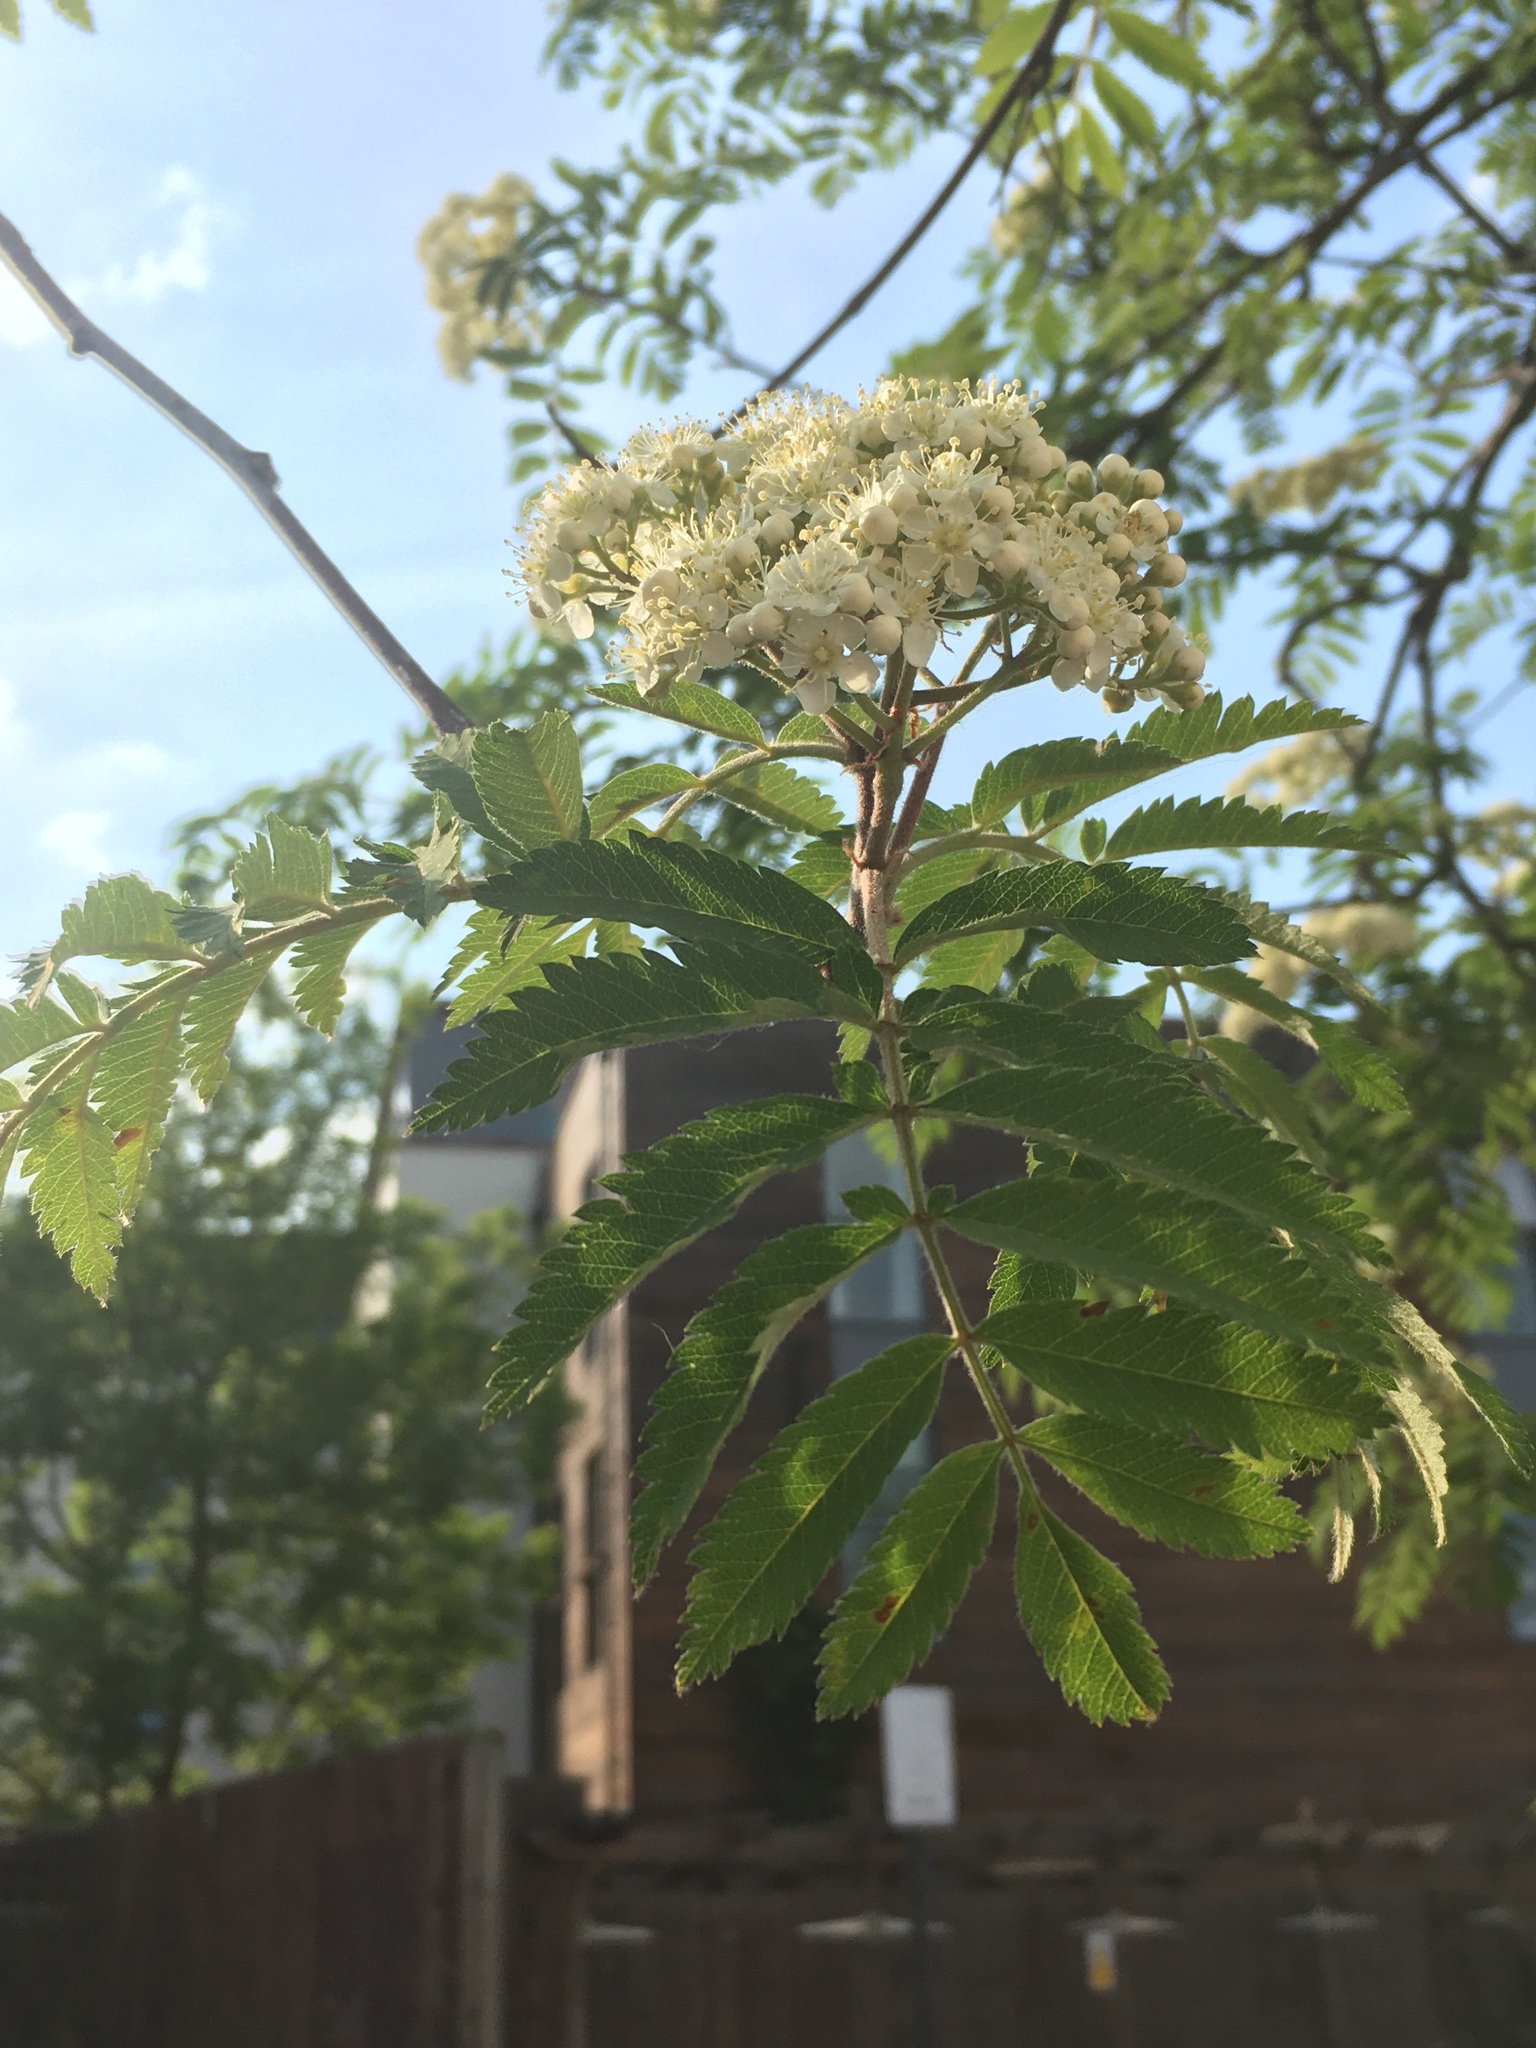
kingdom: Plantae
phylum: Tracheophyta
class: Magnoliopsida
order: Rosales
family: Rosaceae
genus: Sorbus
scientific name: Sorbus aucuparia
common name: Rowan
